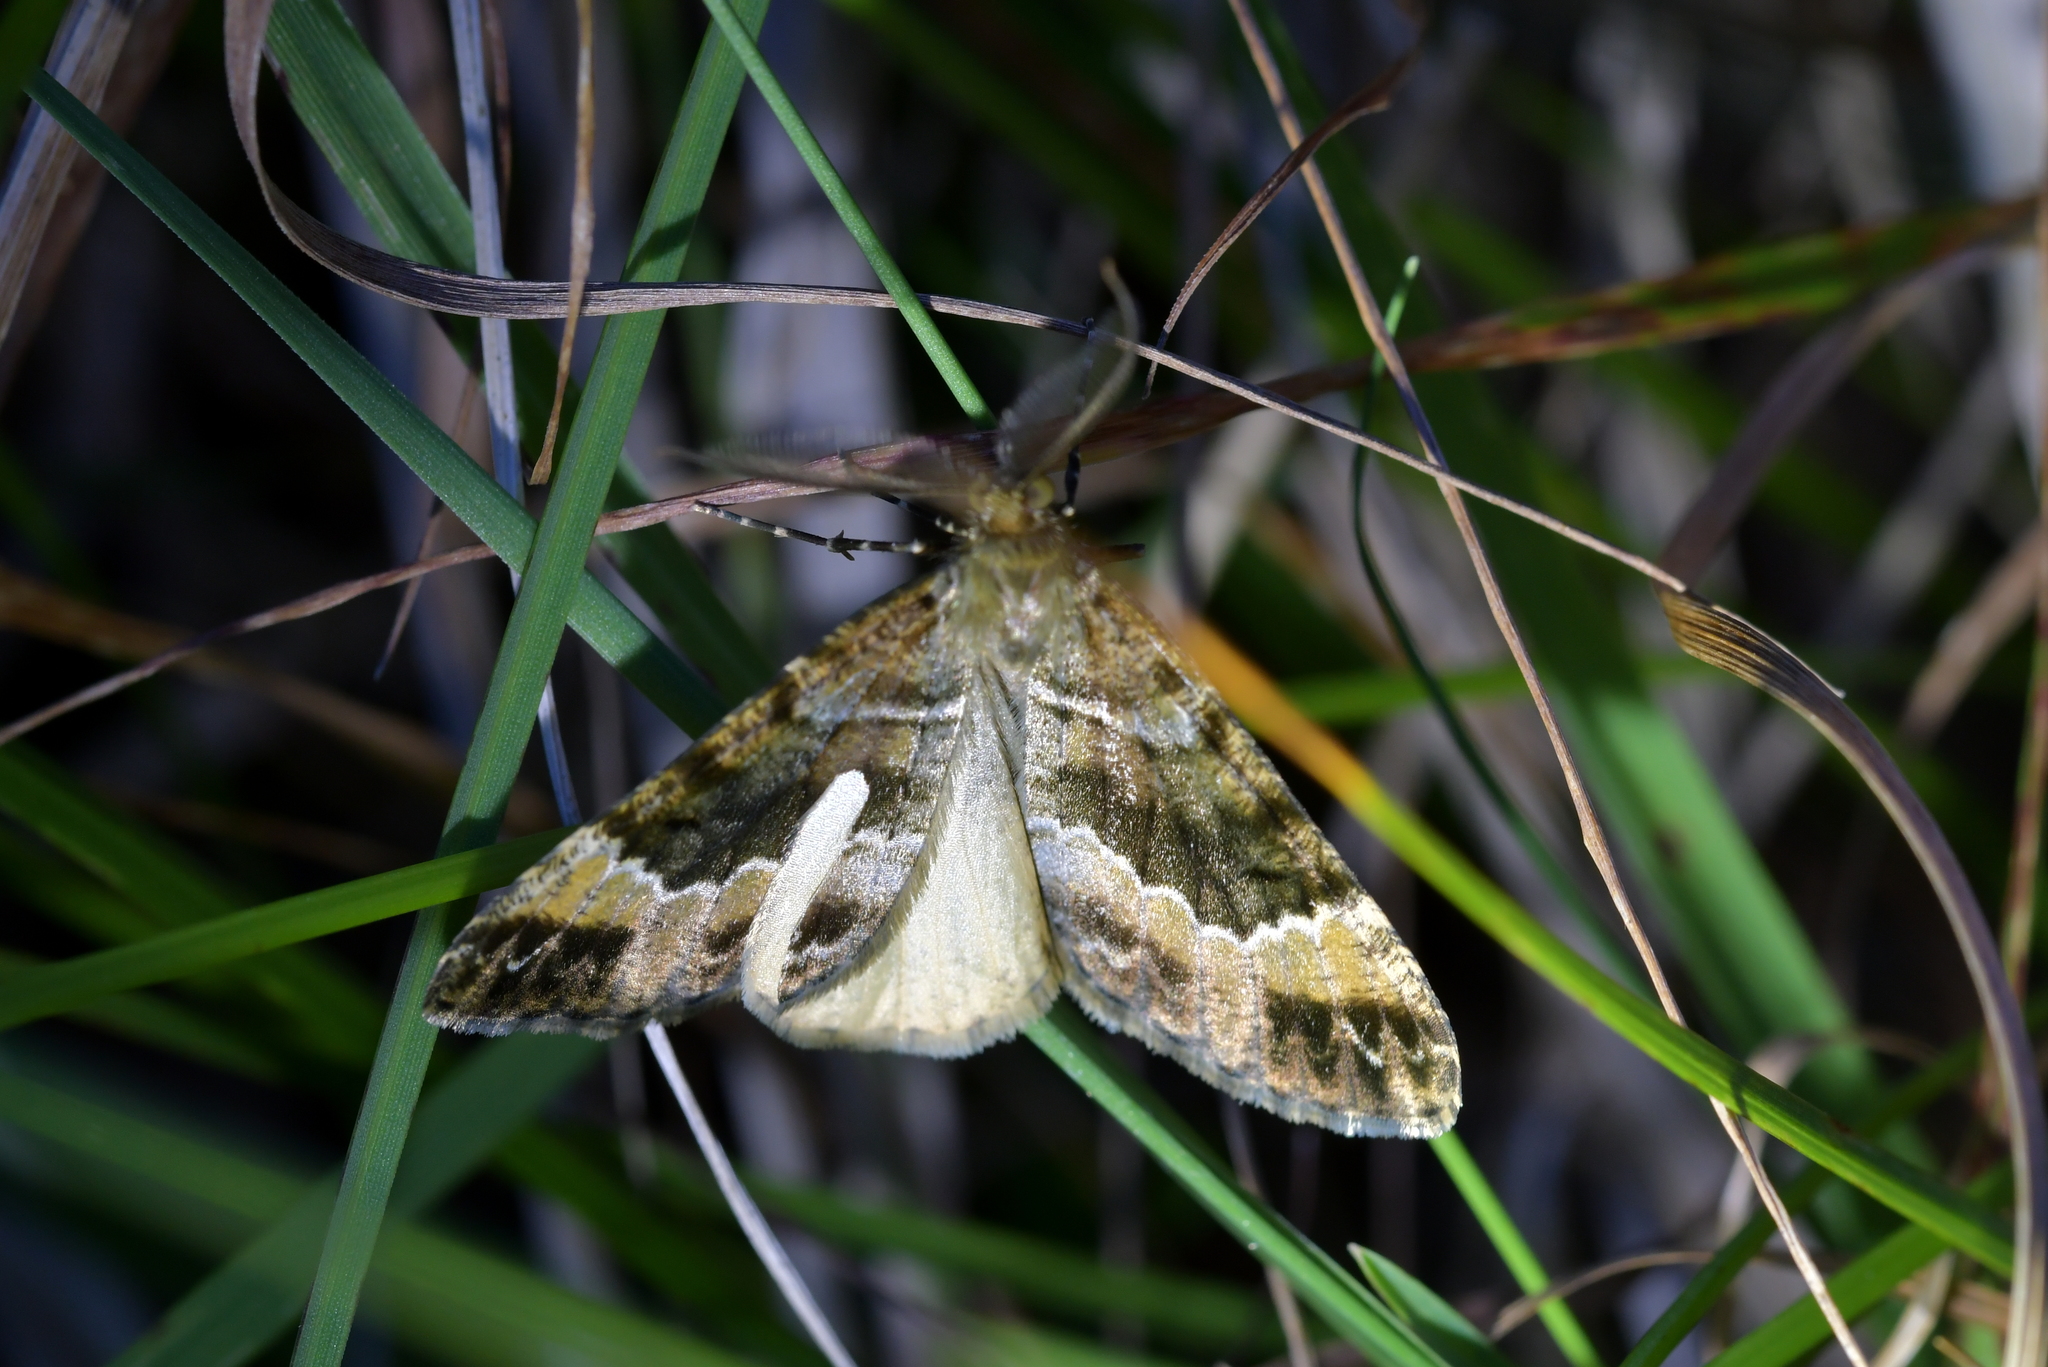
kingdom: Animalia
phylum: Arthropoda
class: Insecta
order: Lepidoptera
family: Geometridae
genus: Pseudocoremia
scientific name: Pseudocoremia productata
